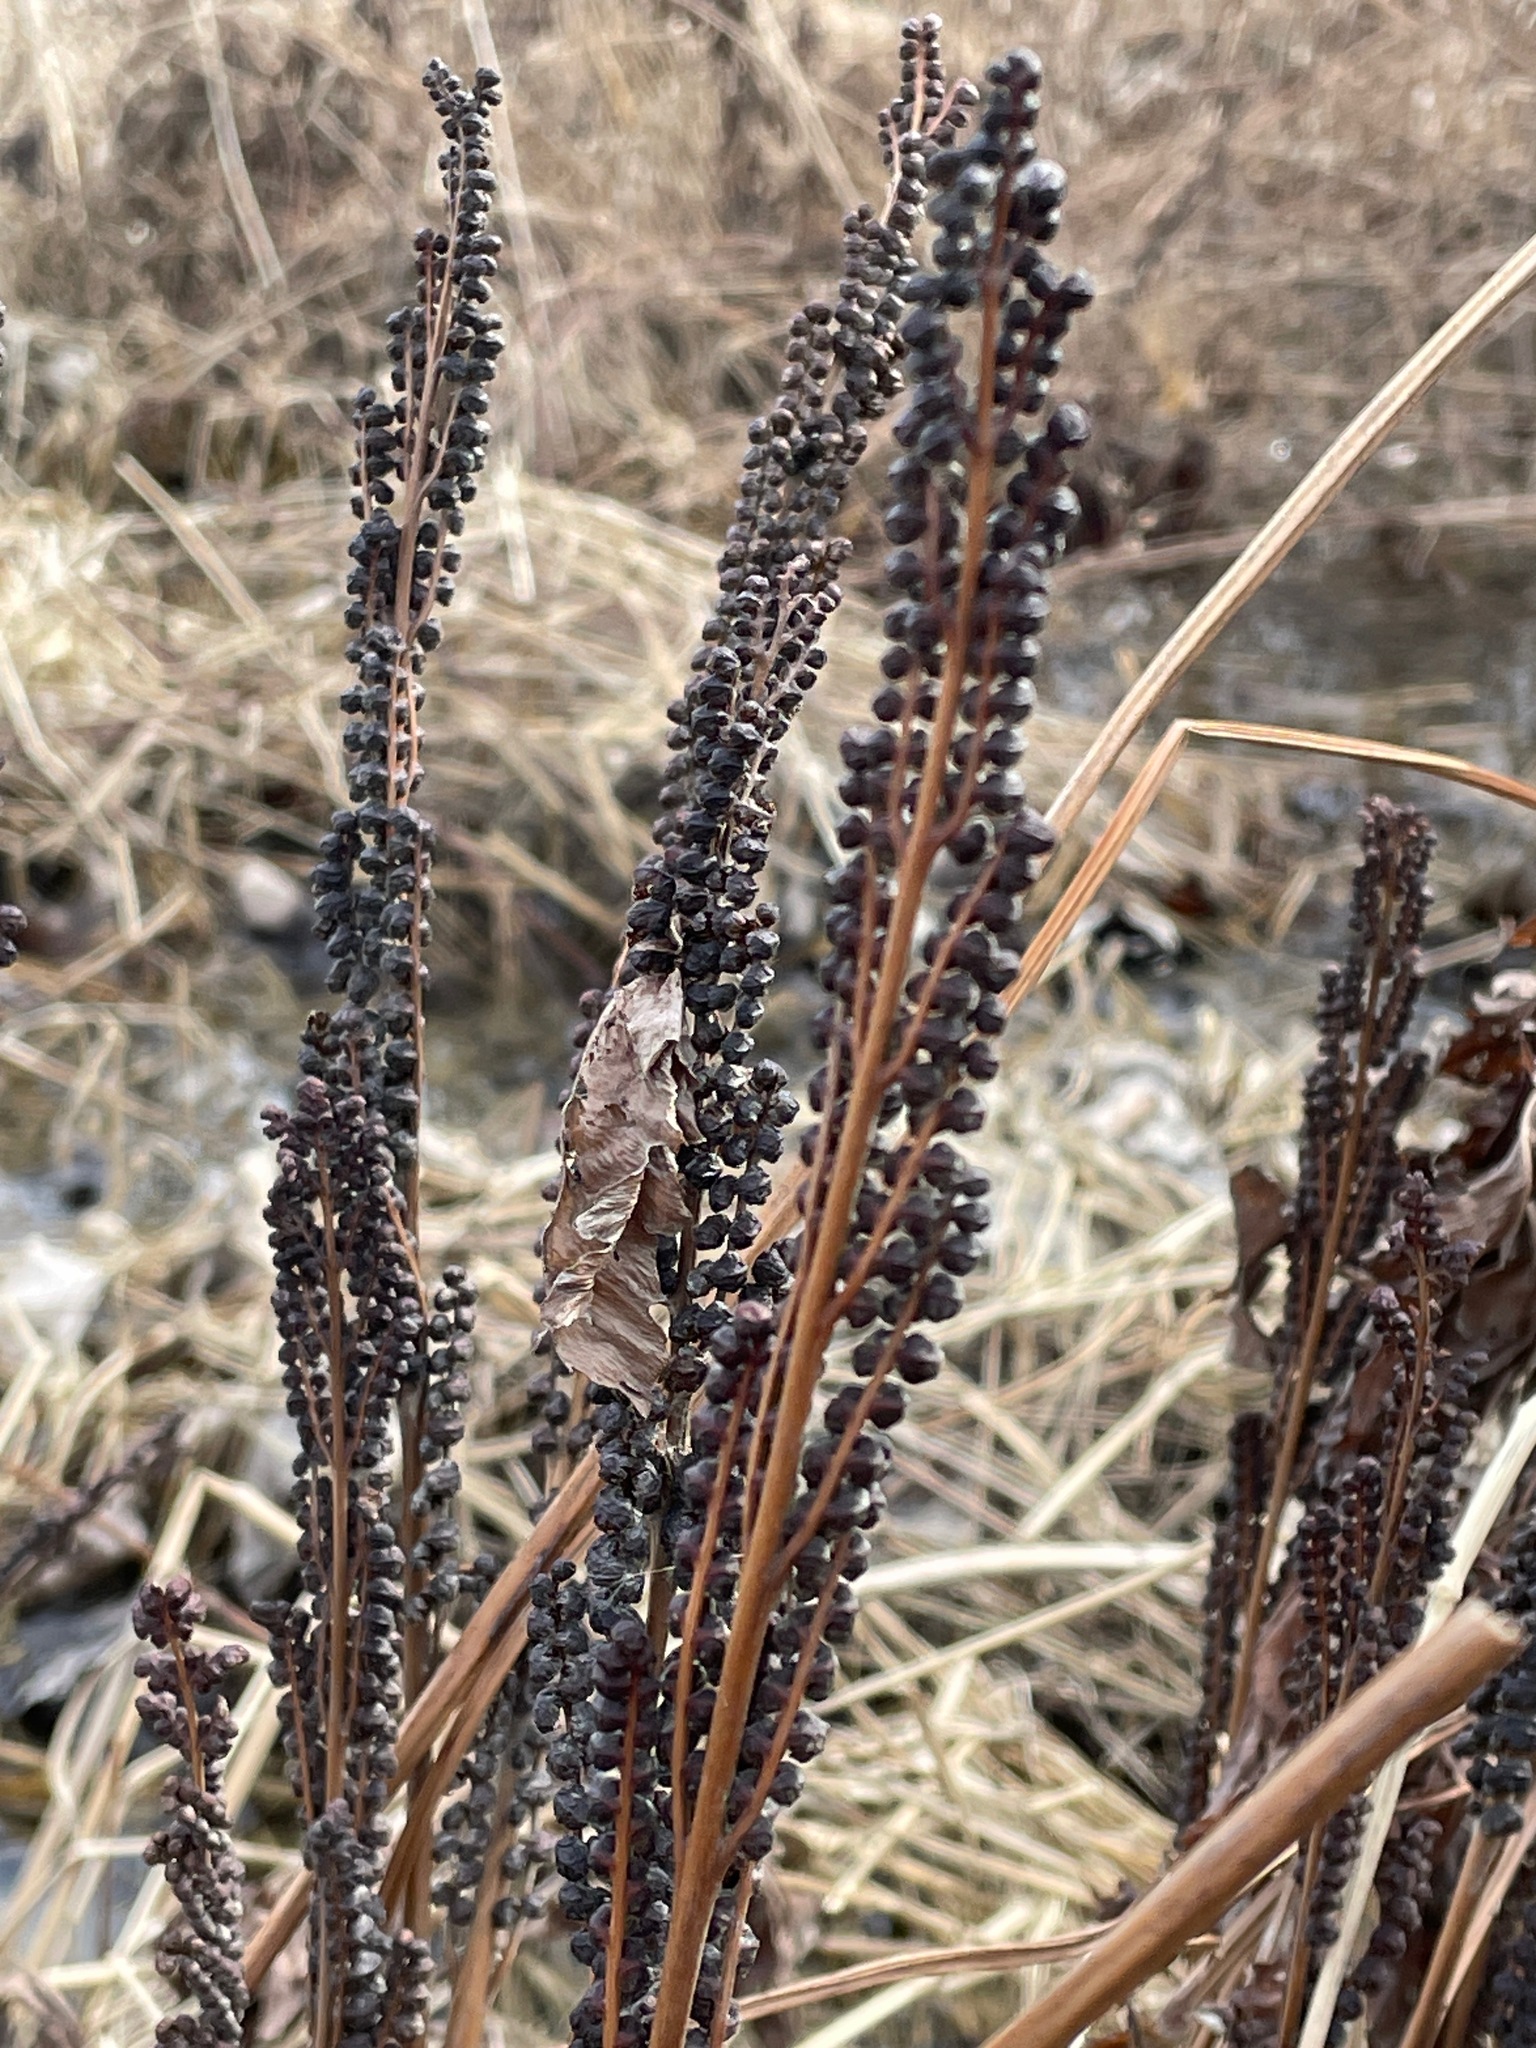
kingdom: Plantae
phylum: Tracheophyta
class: Polypodiopsida
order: Polypodiales
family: Onocleaceae
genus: Onoclea
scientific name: Onoclea sensibilis
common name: Sensitive fern
